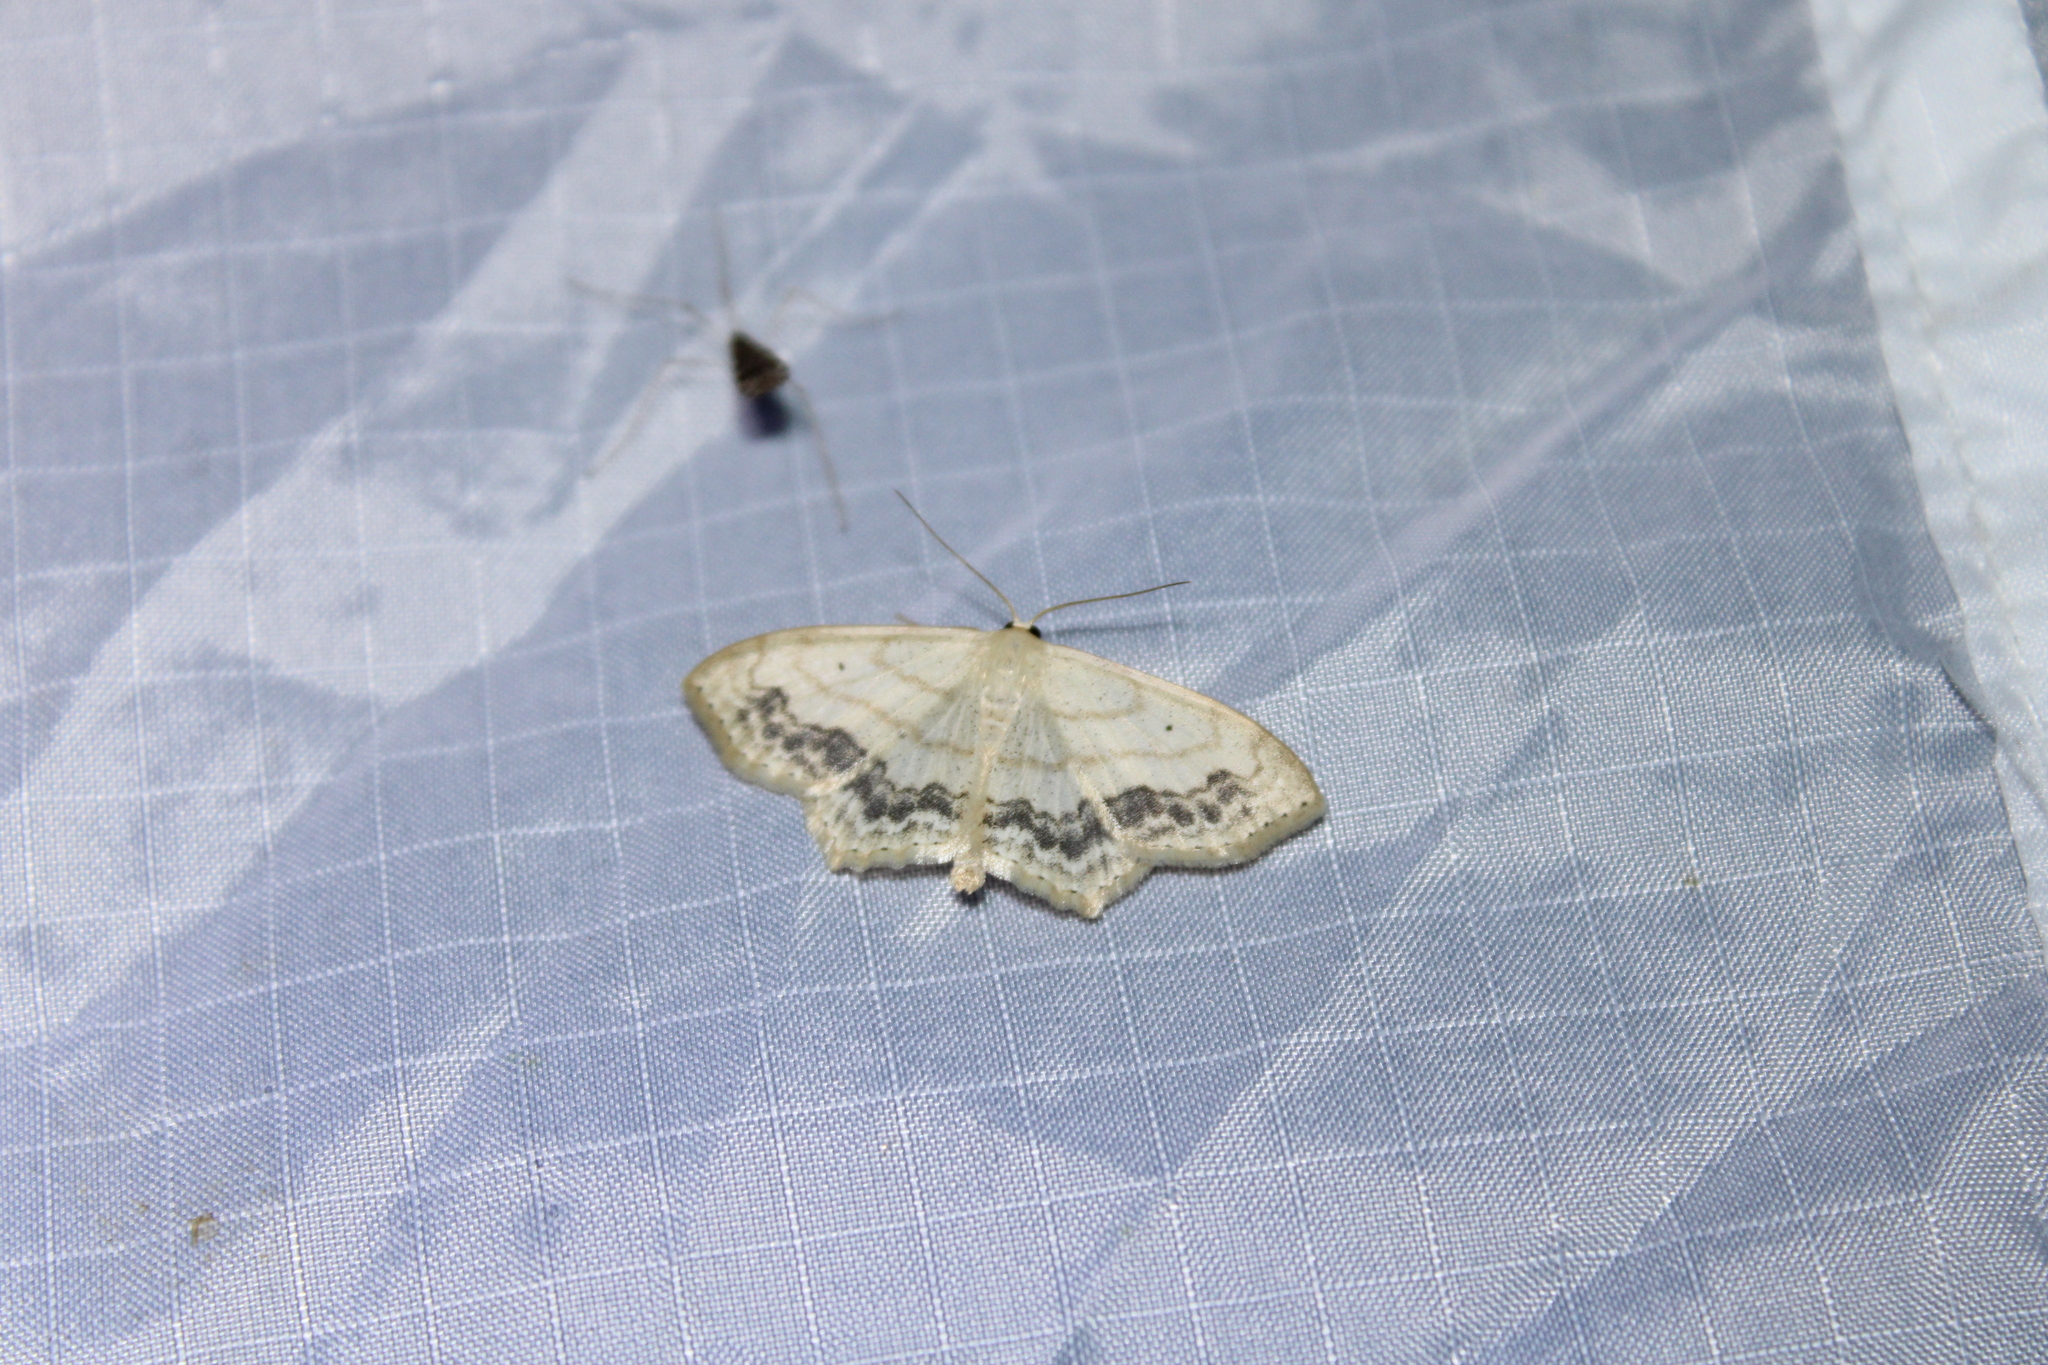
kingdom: Animalia
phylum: Arthropoda
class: Insecta
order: Lepidoptera
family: Geometridae
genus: Scopula
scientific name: Scopula limboundata
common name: Large lace border
